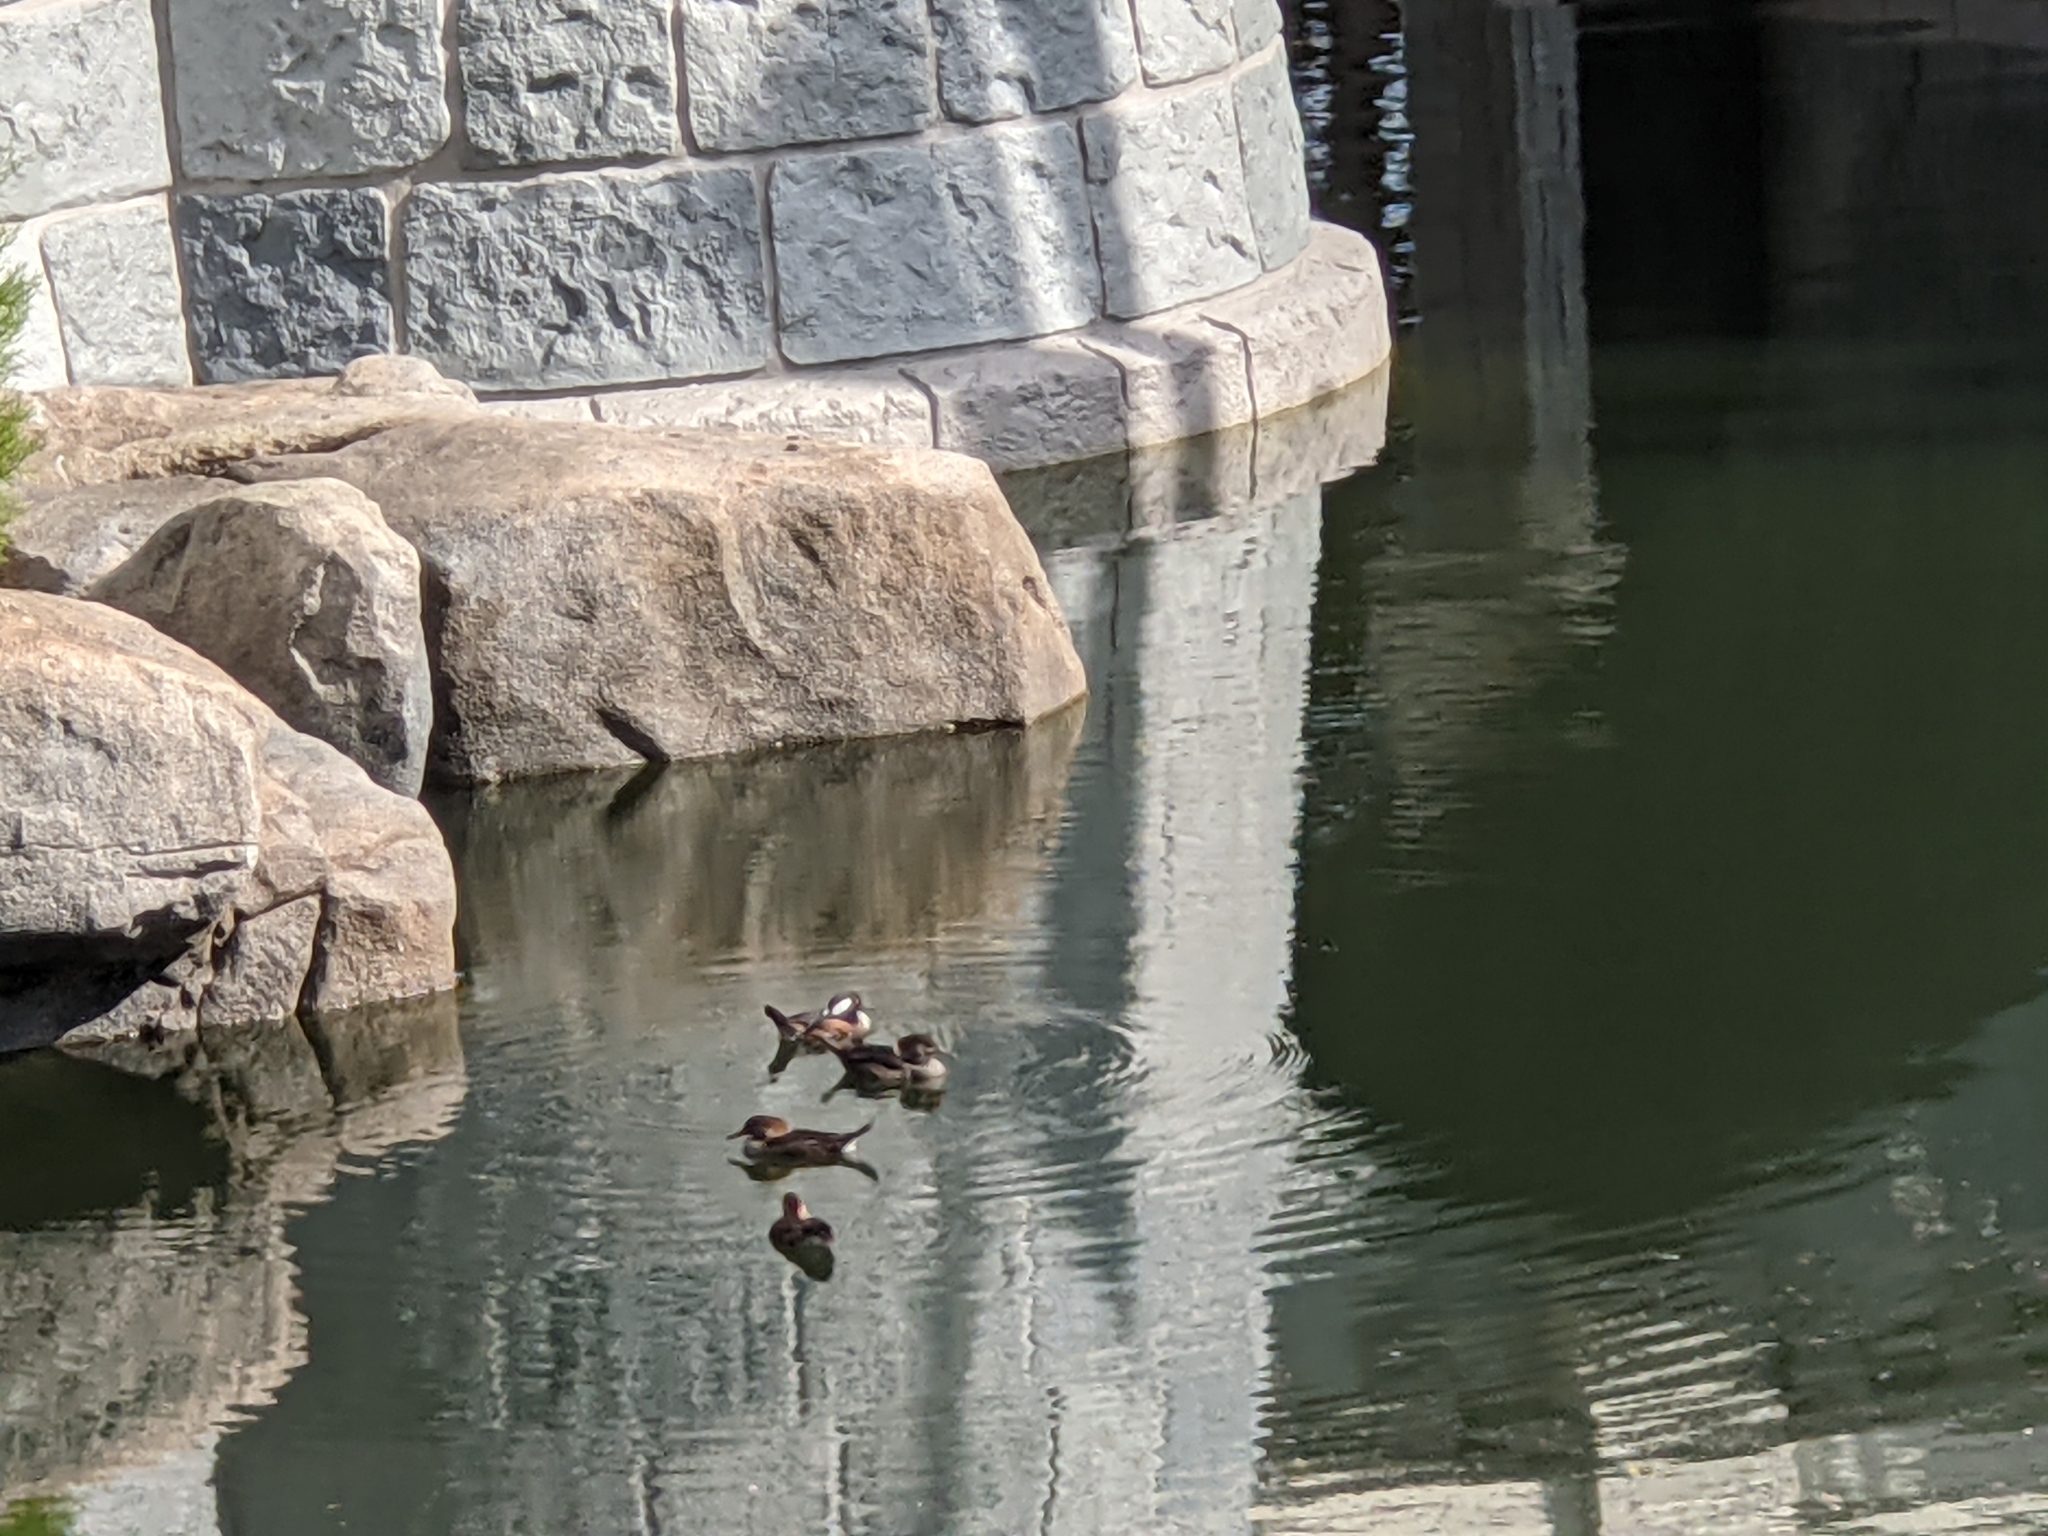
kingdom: Animalia
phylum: Chordata
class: Aves
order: Anseriformes
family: Anatidae
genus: Lophodytes
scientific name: Lophodytes cucullatus
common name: Hooded merganser
